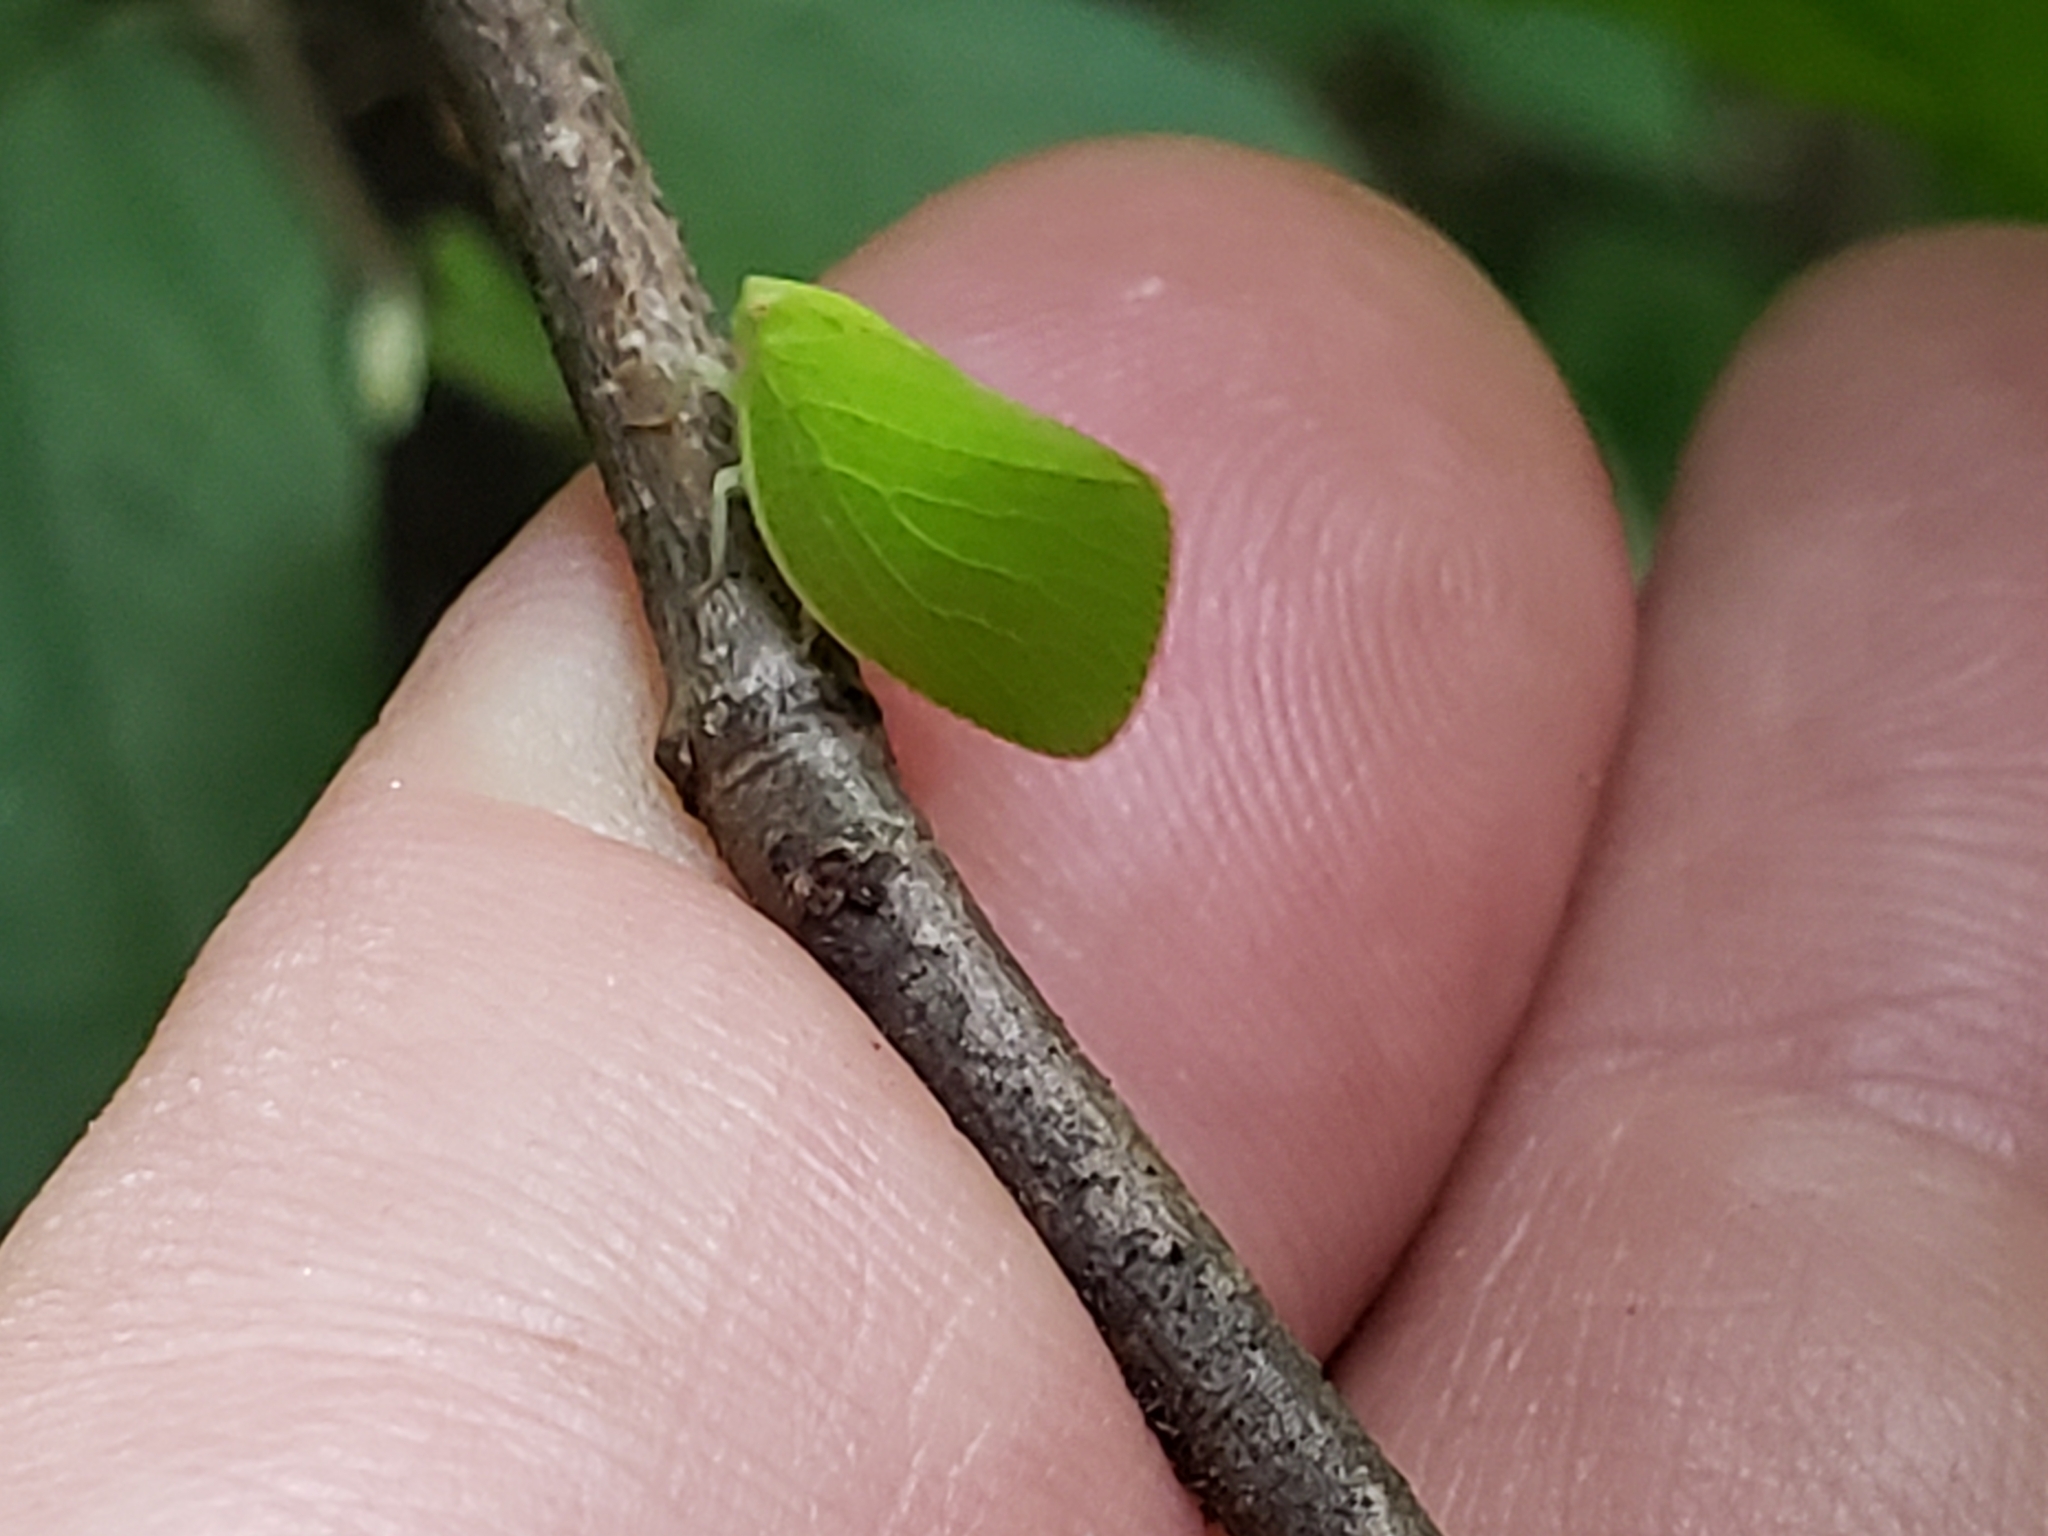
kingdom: Animalia
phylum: Arthropoda
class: Insecta
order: Hemiptera
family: Acanaloniidae
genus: Acanalonia
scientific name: Acanalonia conica
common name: Green cone-headed planthopper
